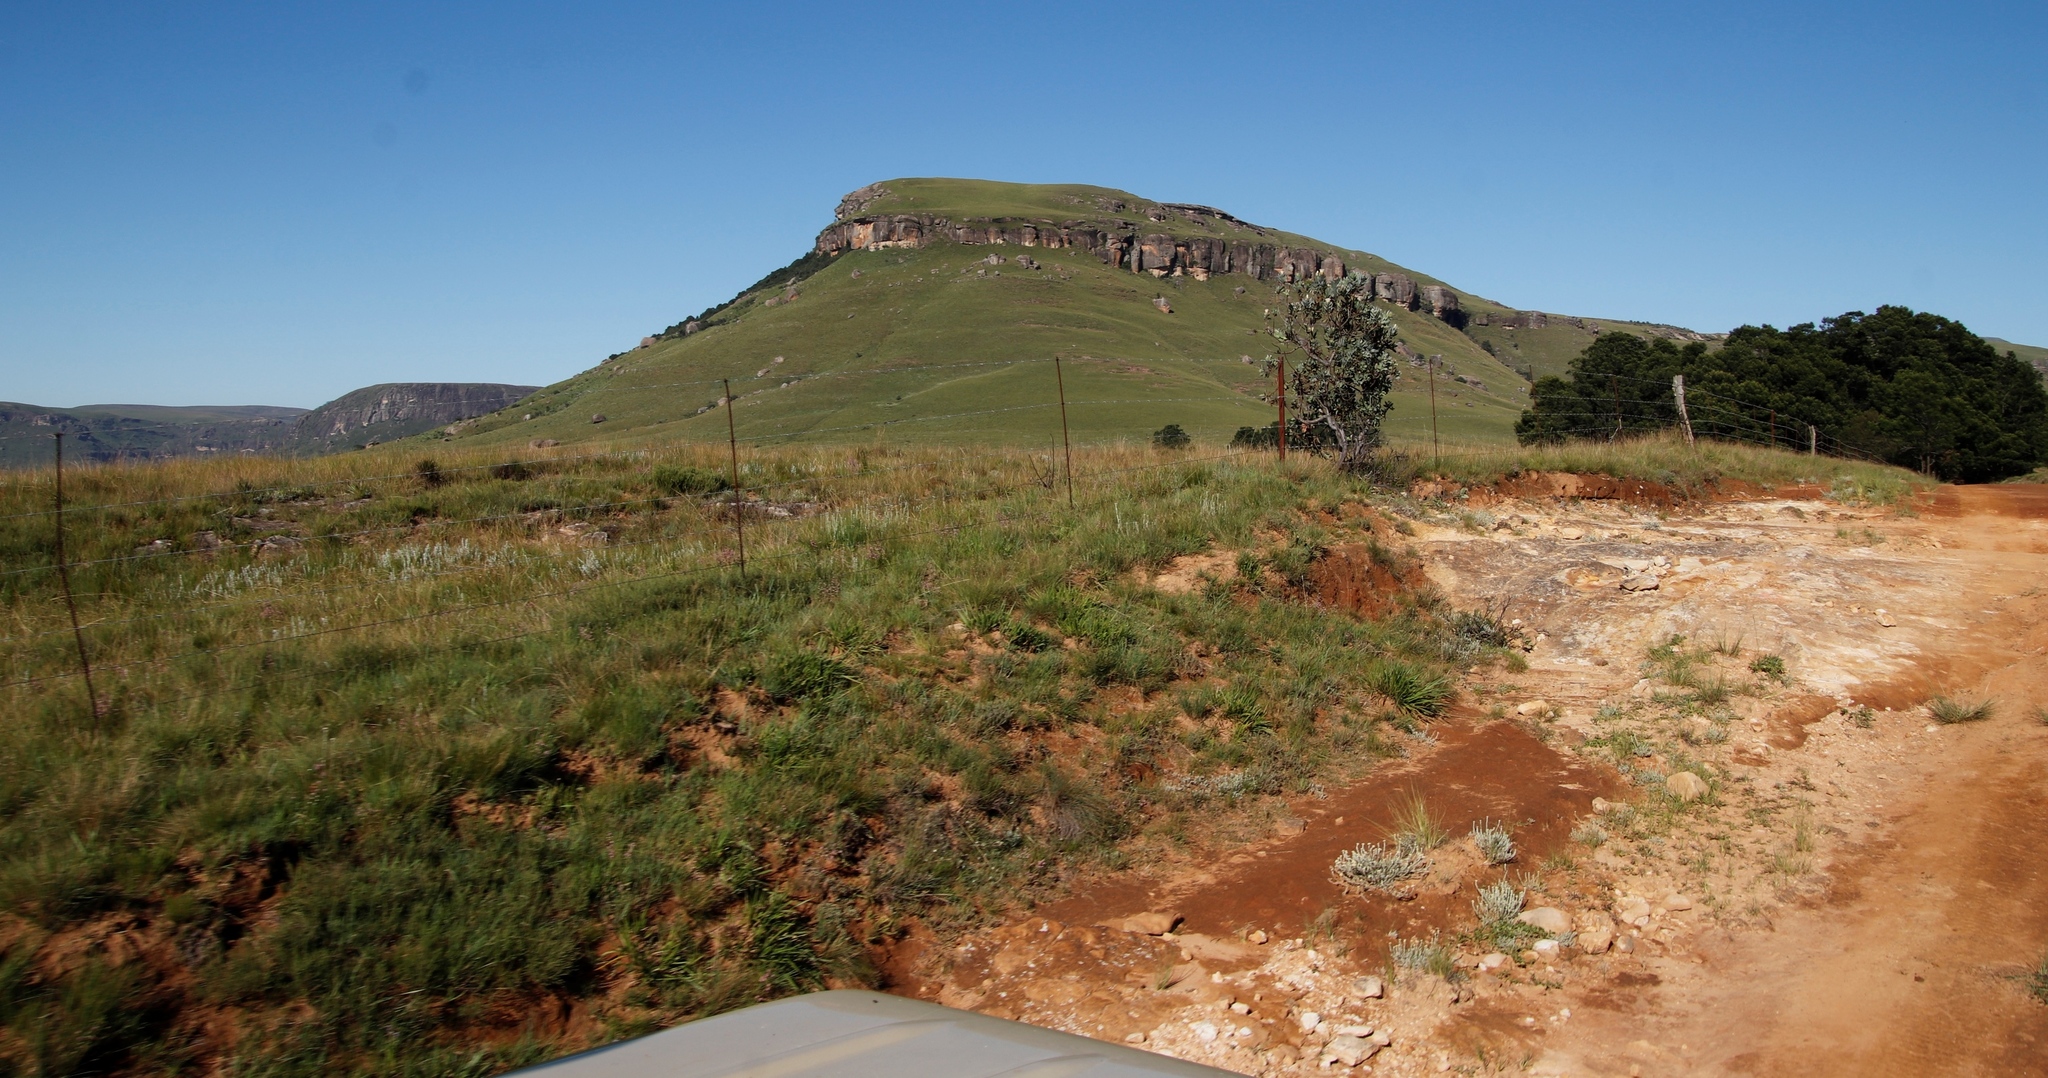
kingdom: Plantae
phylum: Tracheophyta
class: Magnoliopsida
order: Proteales
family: Proteaceae
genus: Protea
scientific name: Protea subvestita
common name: Lip-flower sugarbush
